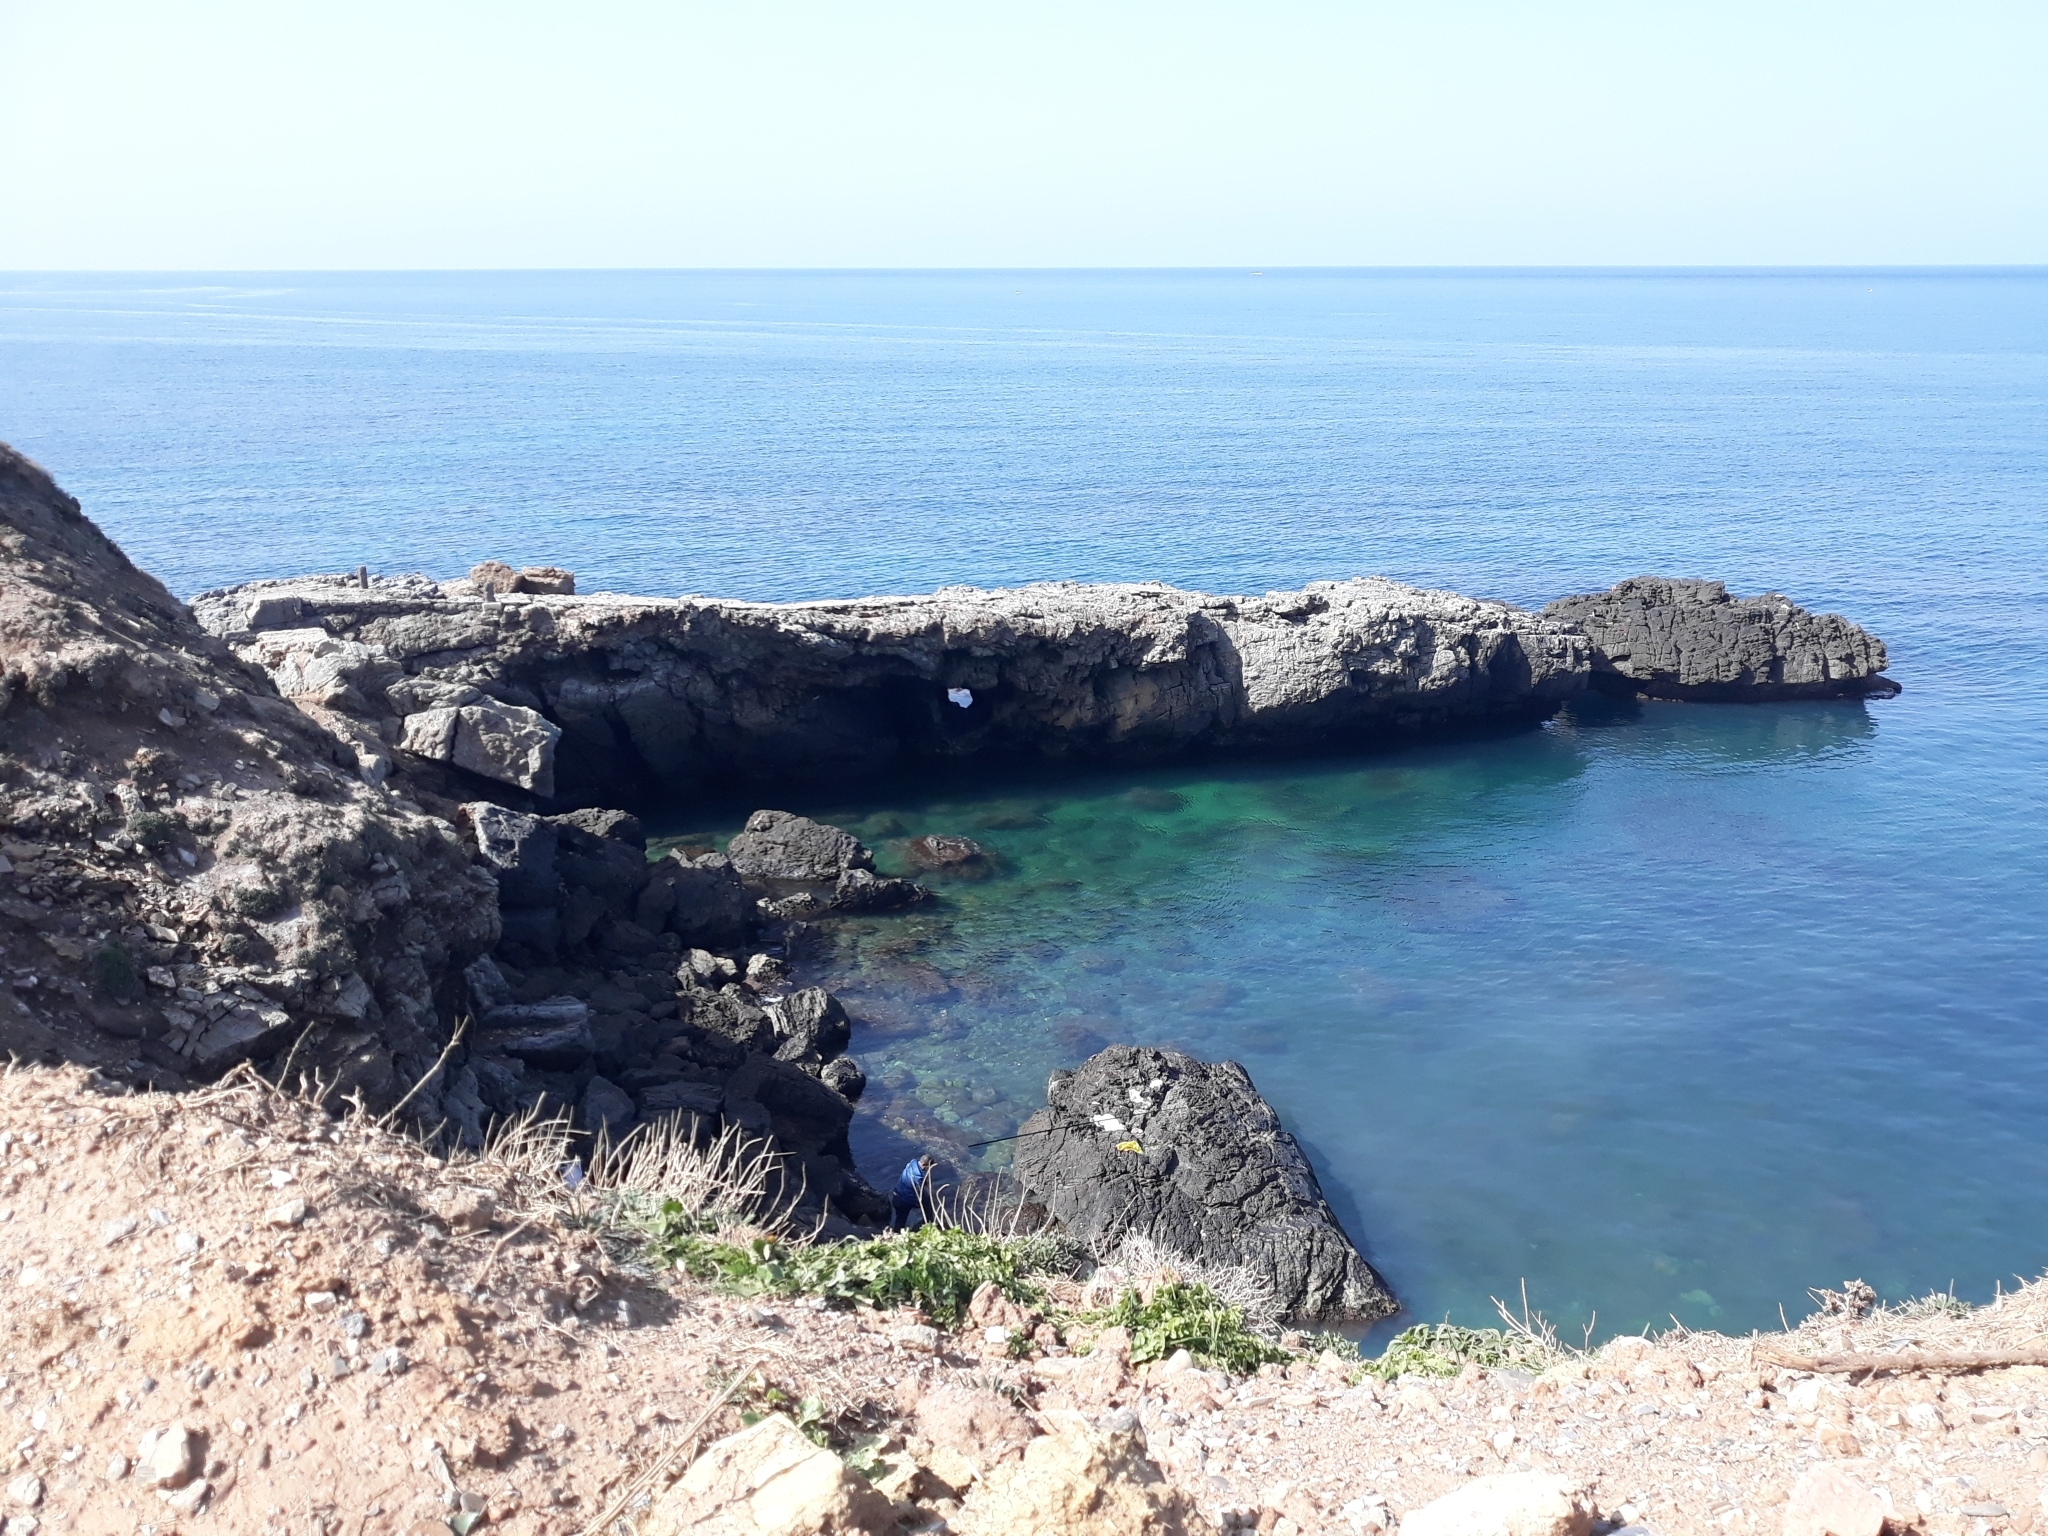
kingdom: Animalia
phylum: Chordata
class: Aves
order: Suliformes
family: Sulidae
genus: Morus
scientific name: Morus bassanus
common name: Northern gannet
